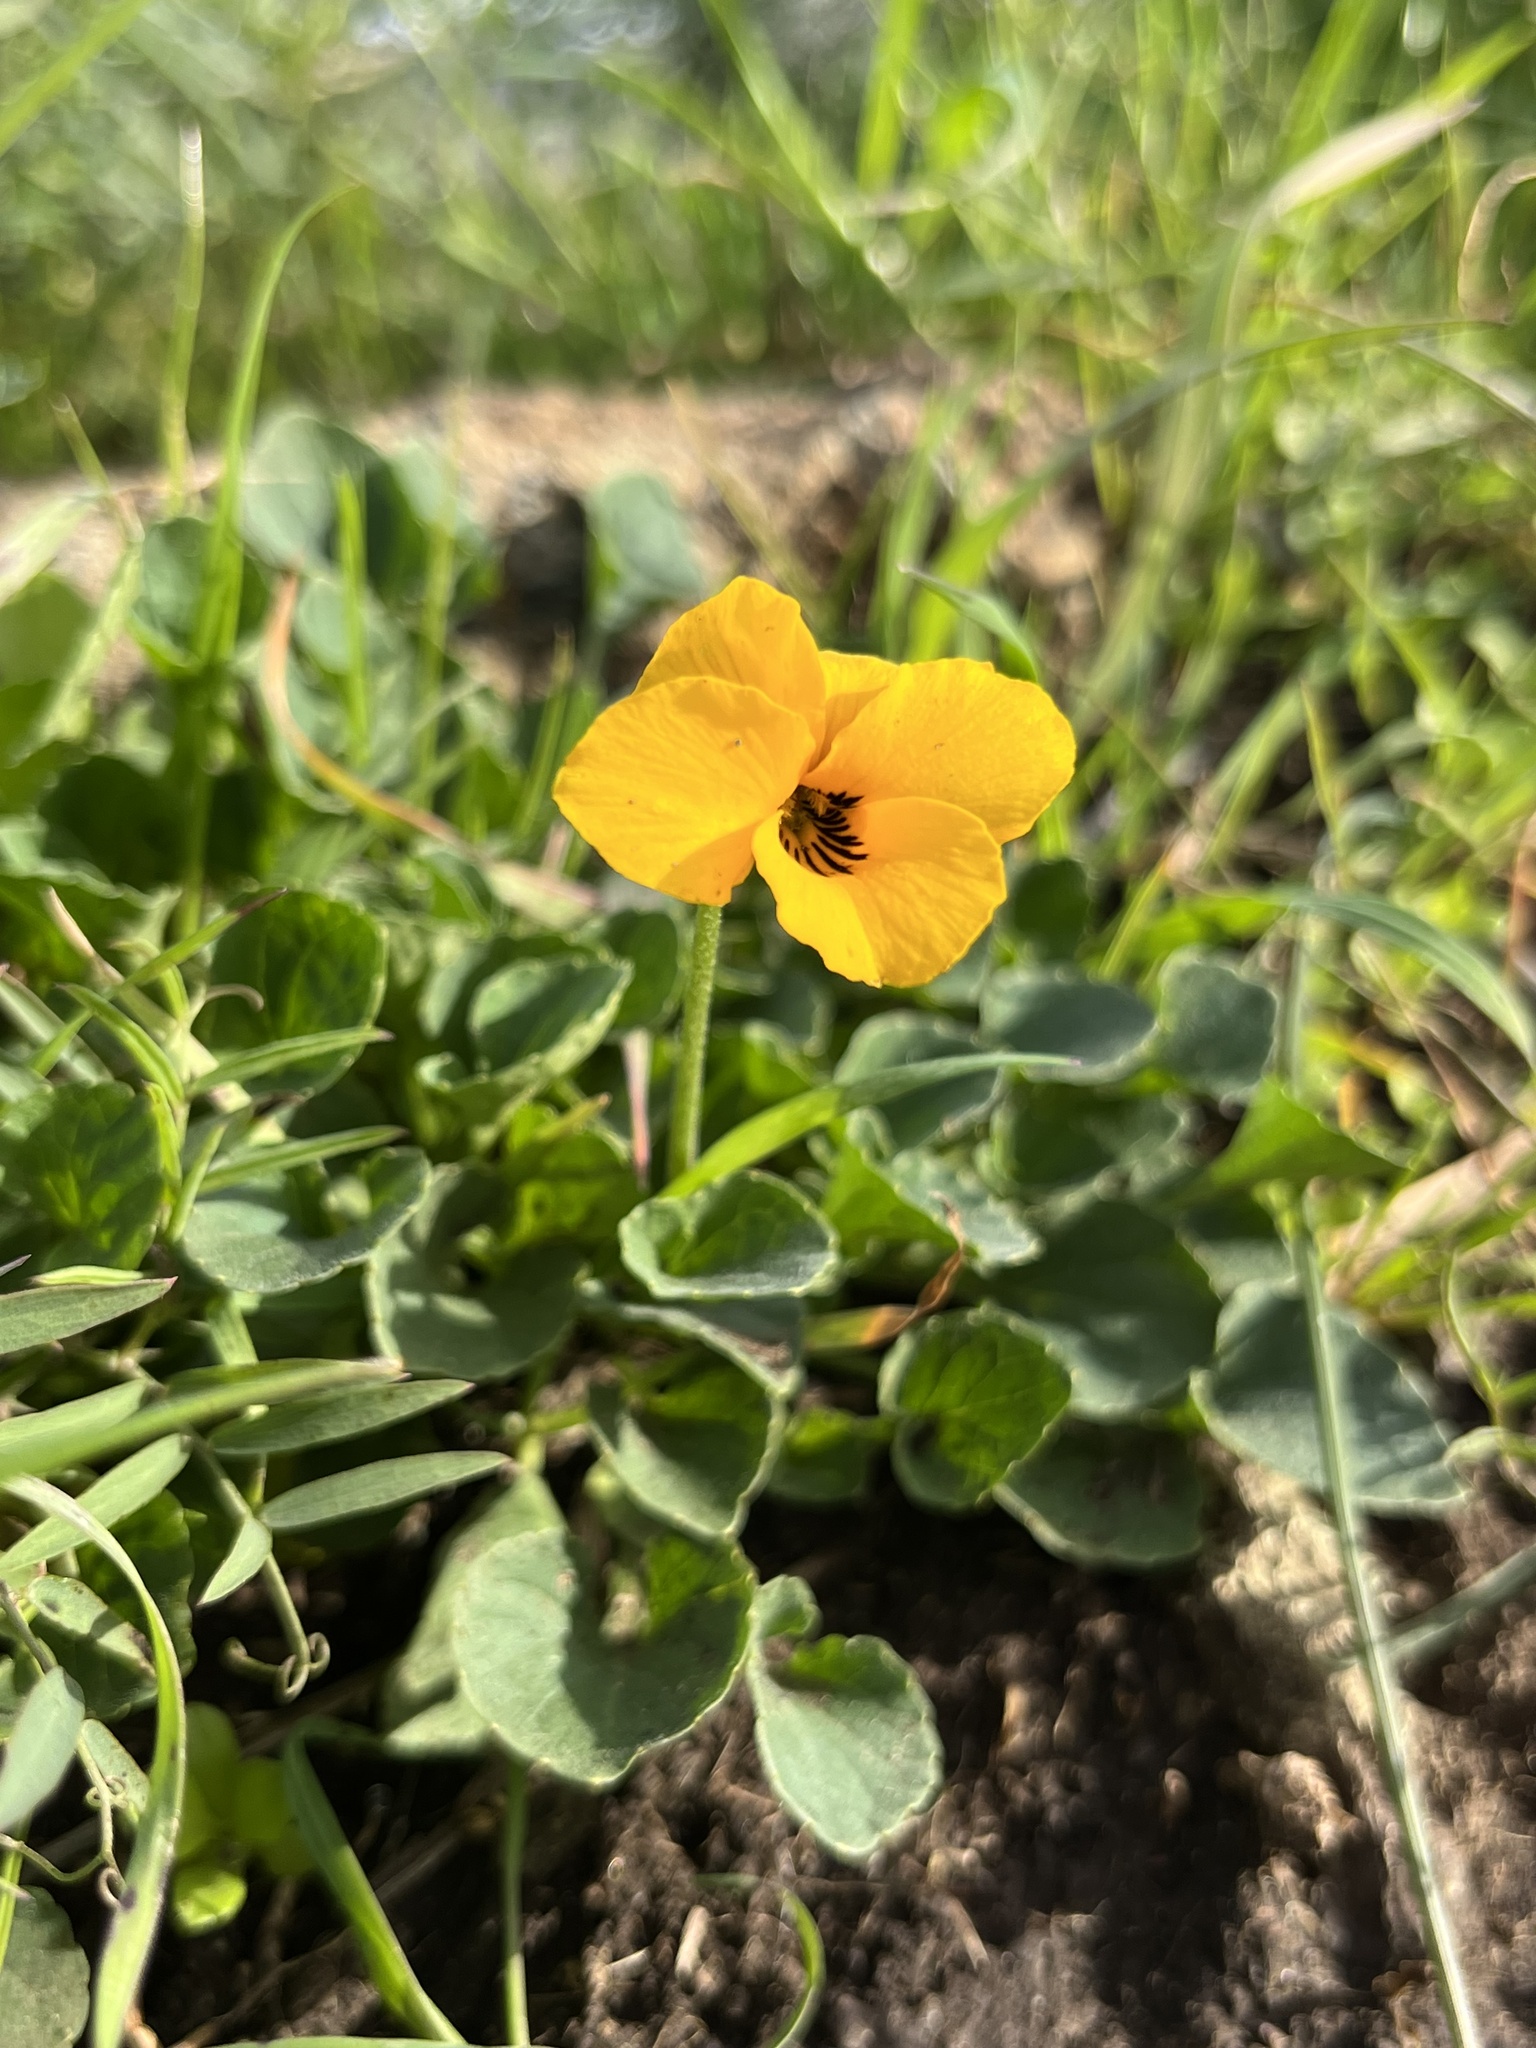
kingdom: Plantae
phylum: Tracheophyta
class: Magnoliopsida
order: Malpighiales
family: Violaceae
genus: Viola
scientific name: Viola pedunculata
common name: California golden violet
